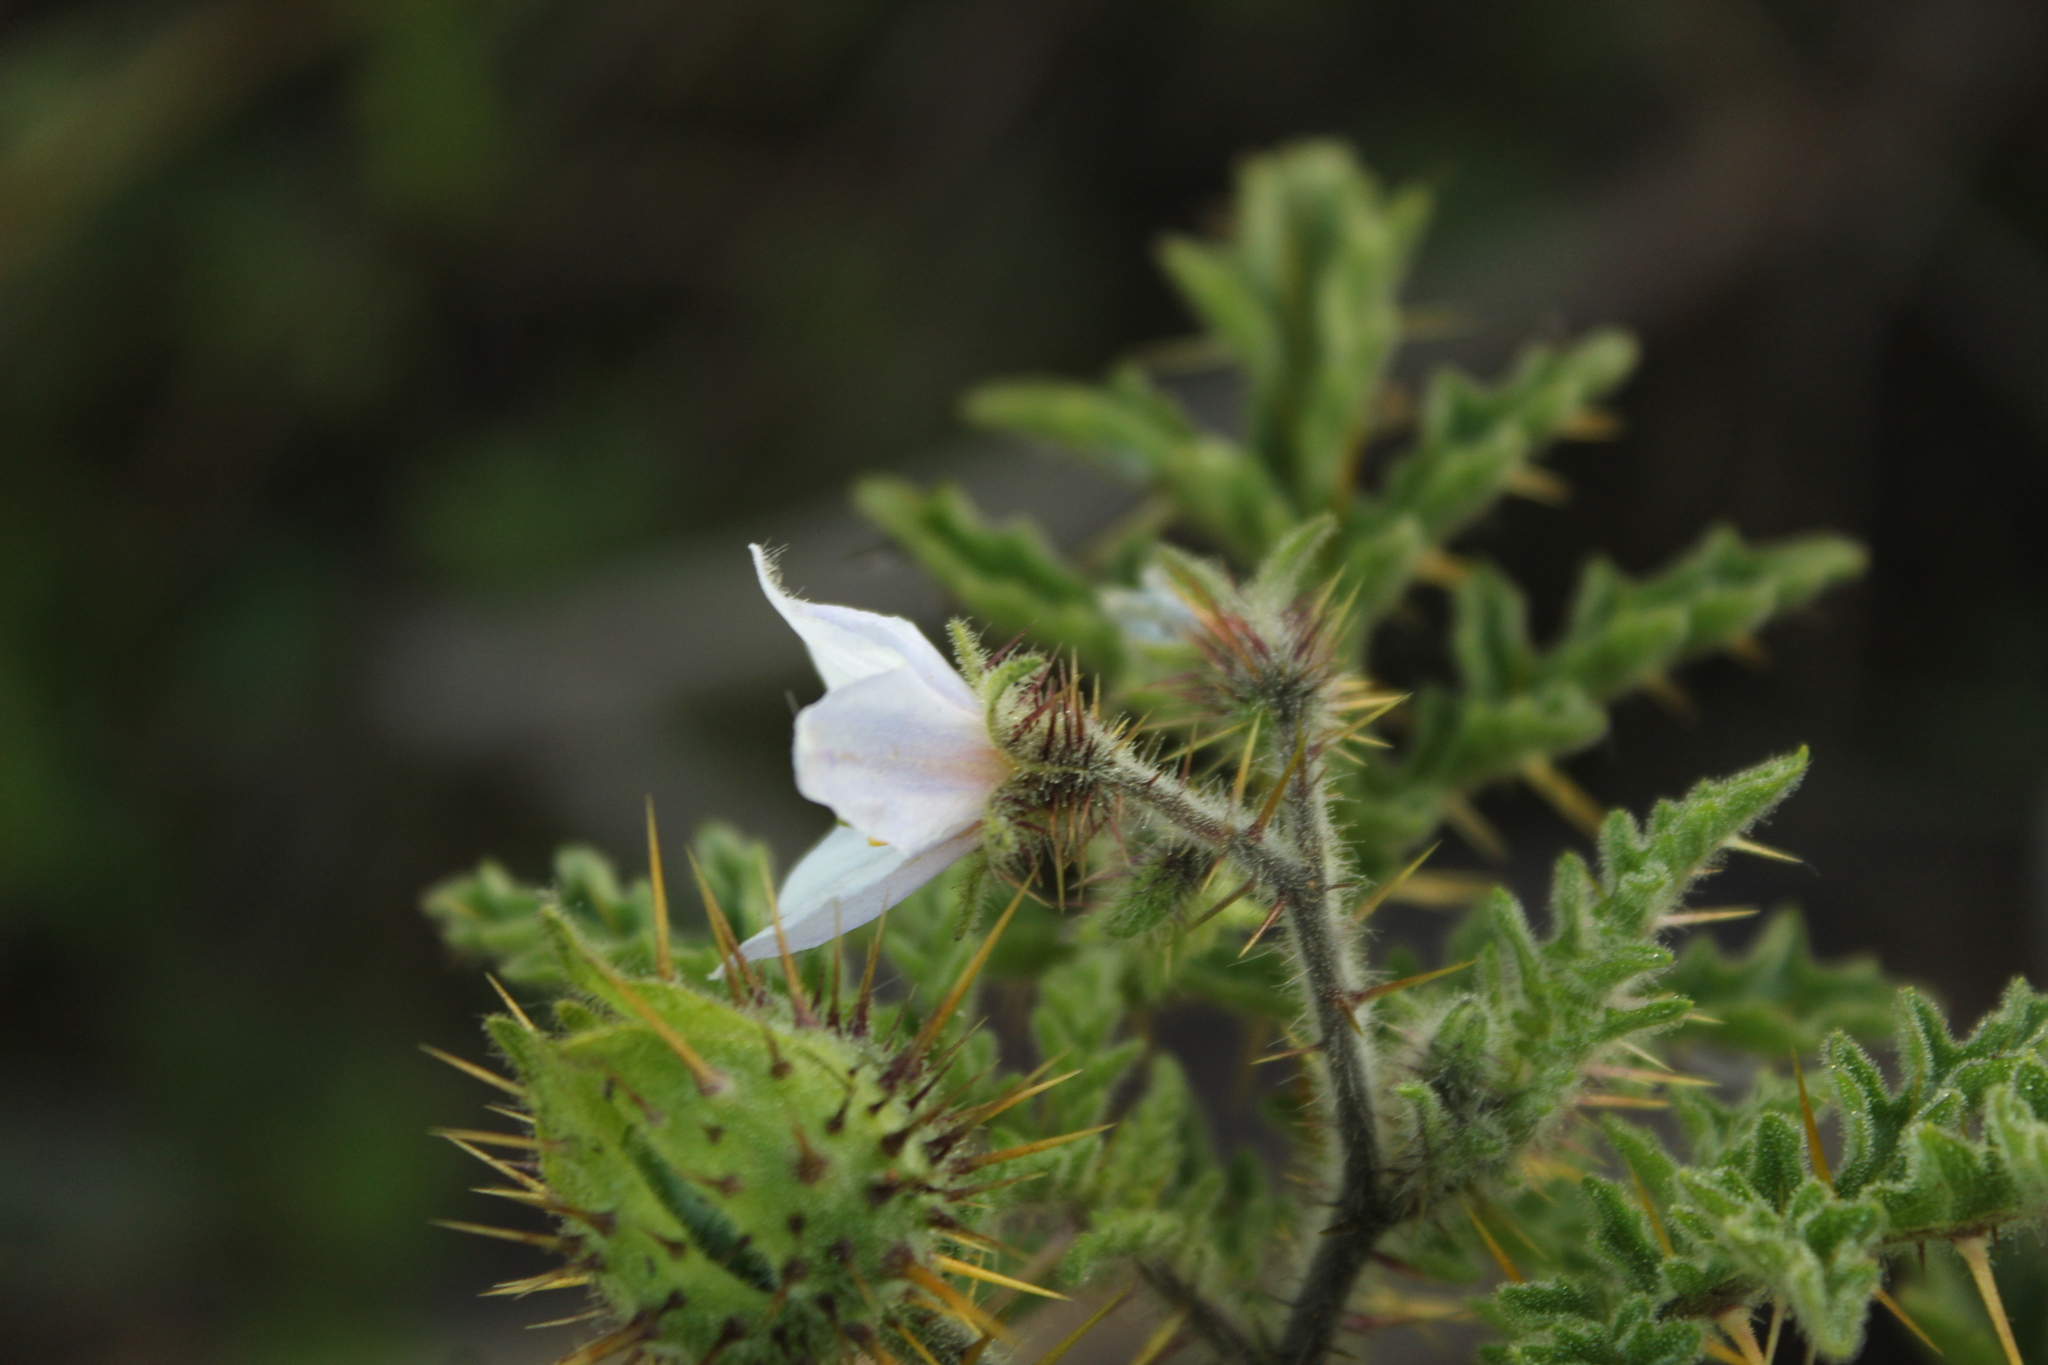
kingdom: Plantae
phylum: Tracheophyta
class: Magnoliopsida
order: Solanales
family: Solanaceae
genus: Solanum
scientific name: Solanum sisymbriifolium
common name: Red buffalo-bur
